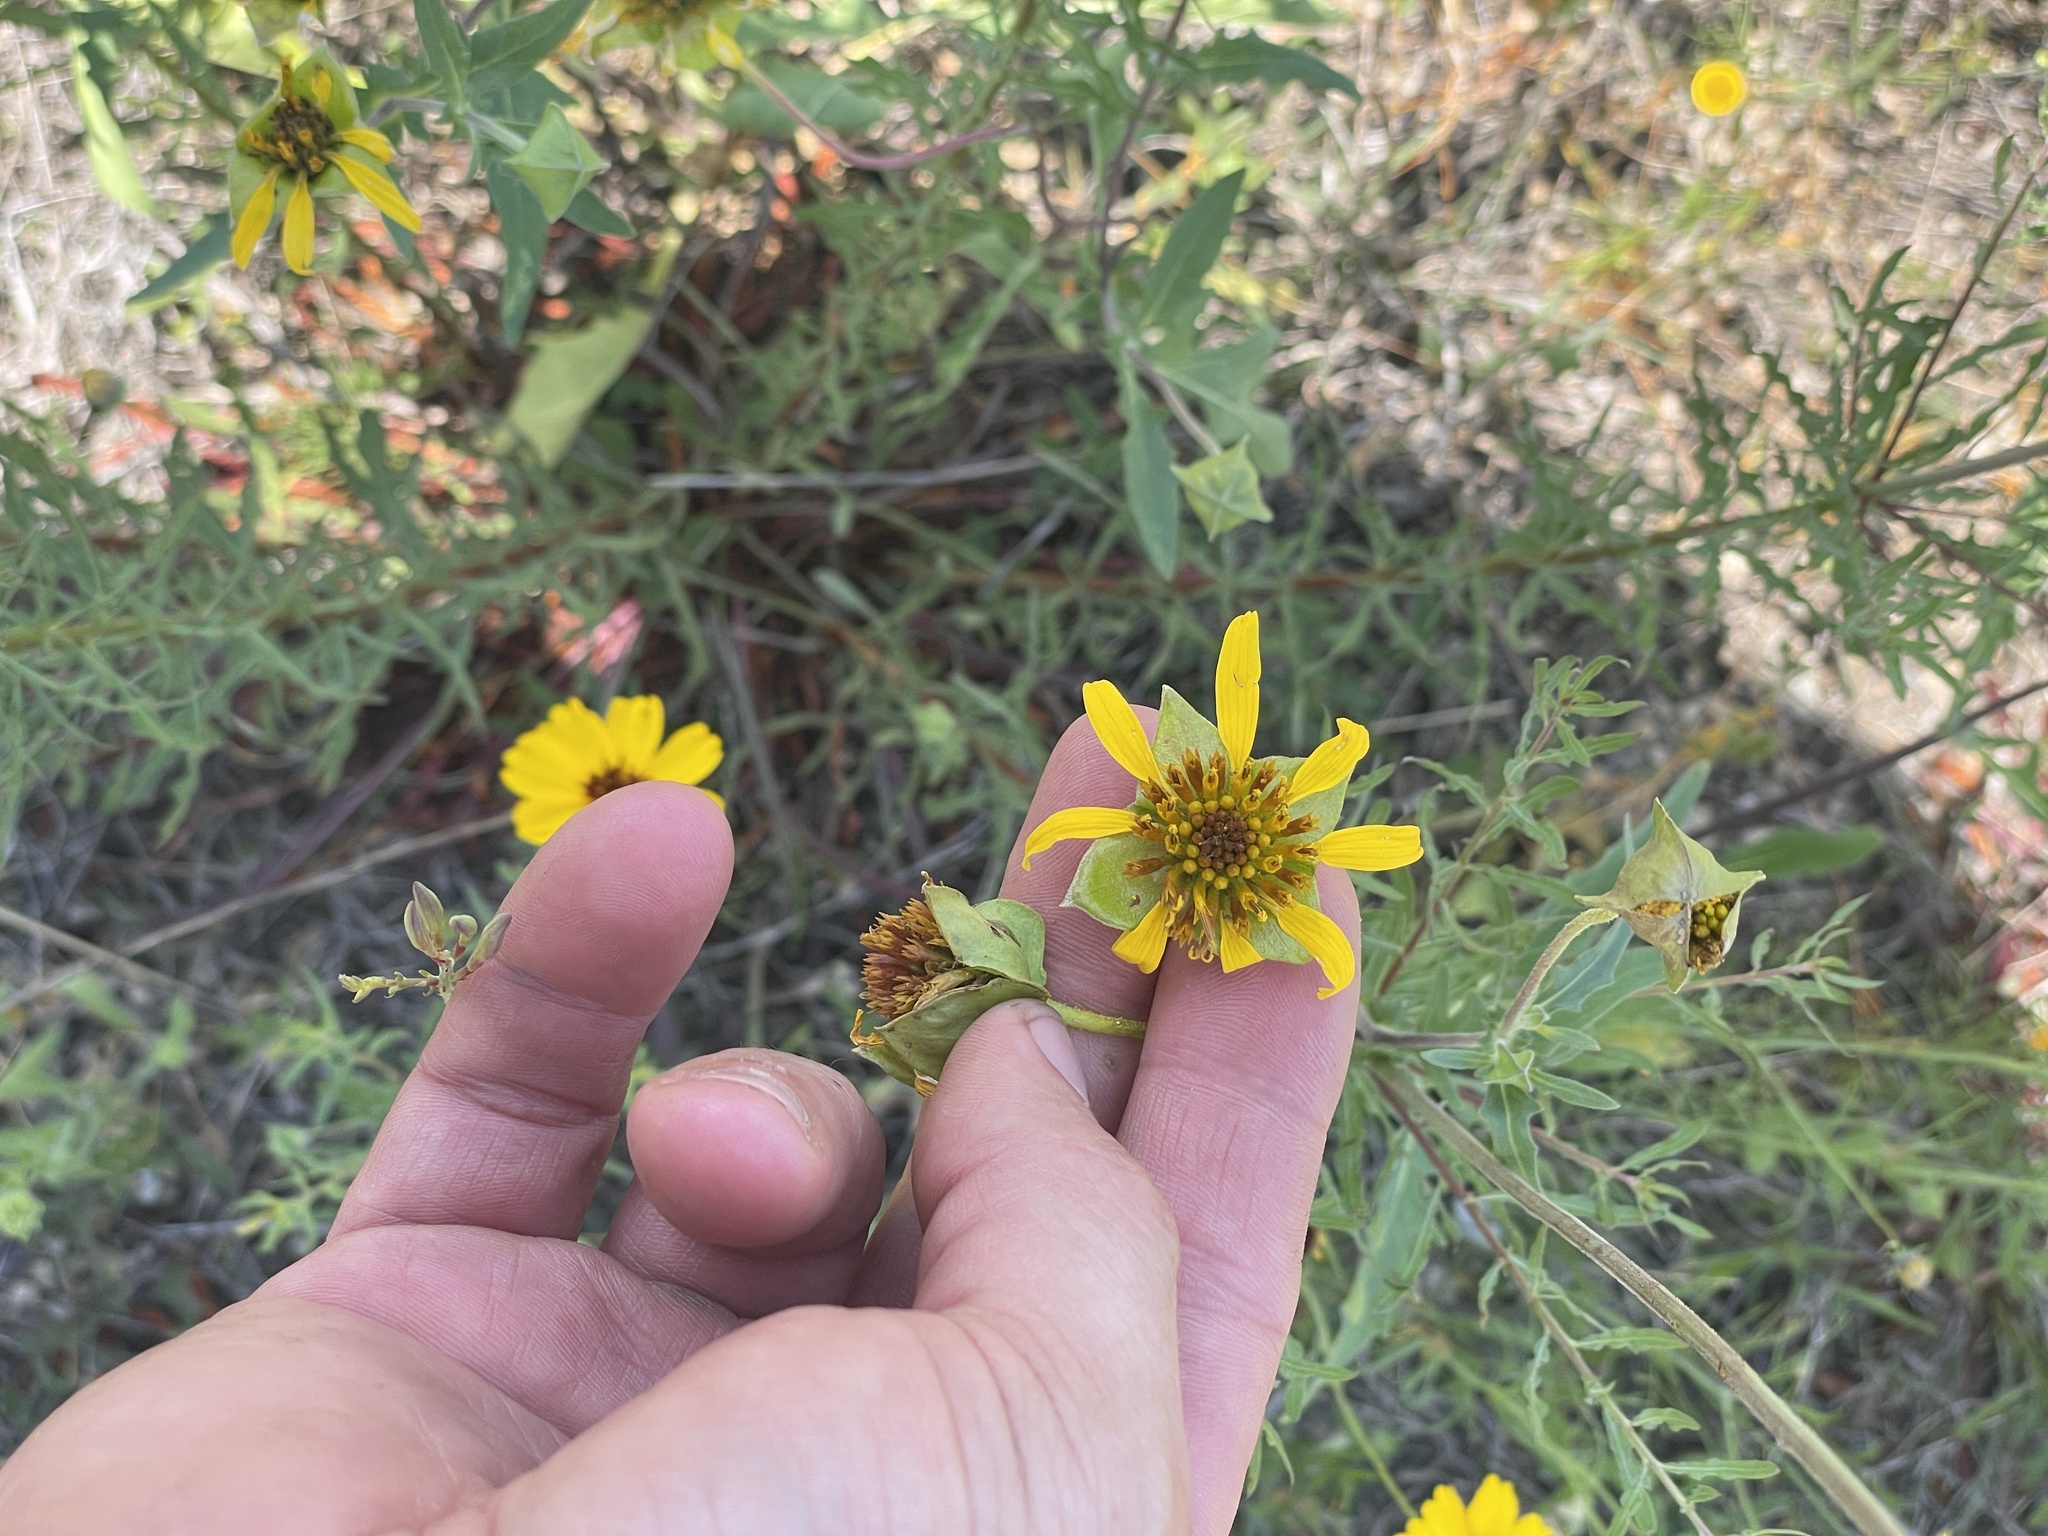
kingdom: Plantae
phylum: Tracheophyta
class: Magnoliopsida
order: Asterales
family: Asteraceae
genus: Tetragonotheca
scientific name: Tetragonotheca texana
